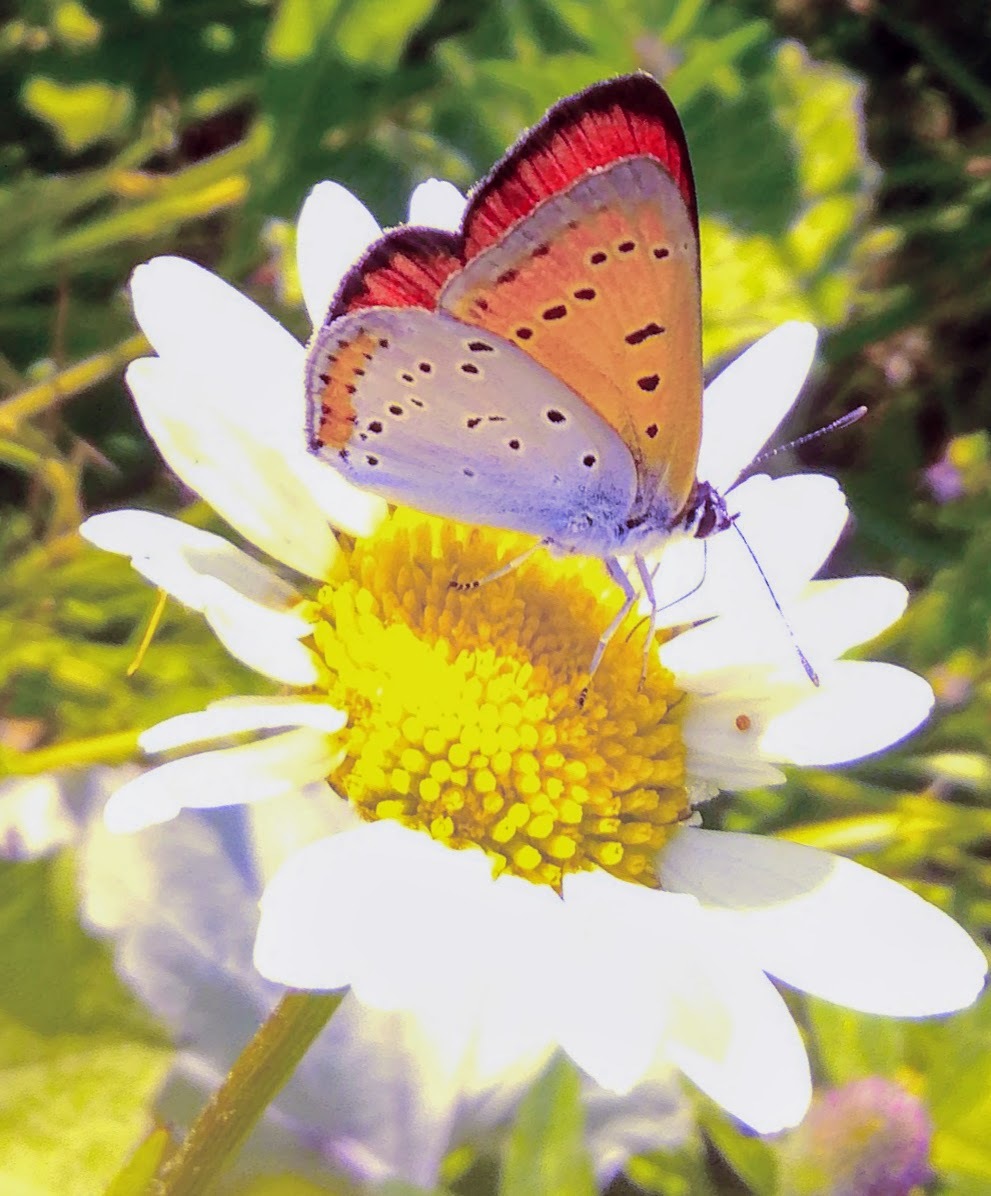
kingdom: Animalia
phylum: Arthropoda
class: Insecta
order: Lepidoptera
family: Lycaenidae
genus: Lycaena
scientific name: Lycaena dispar
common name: Large copper
